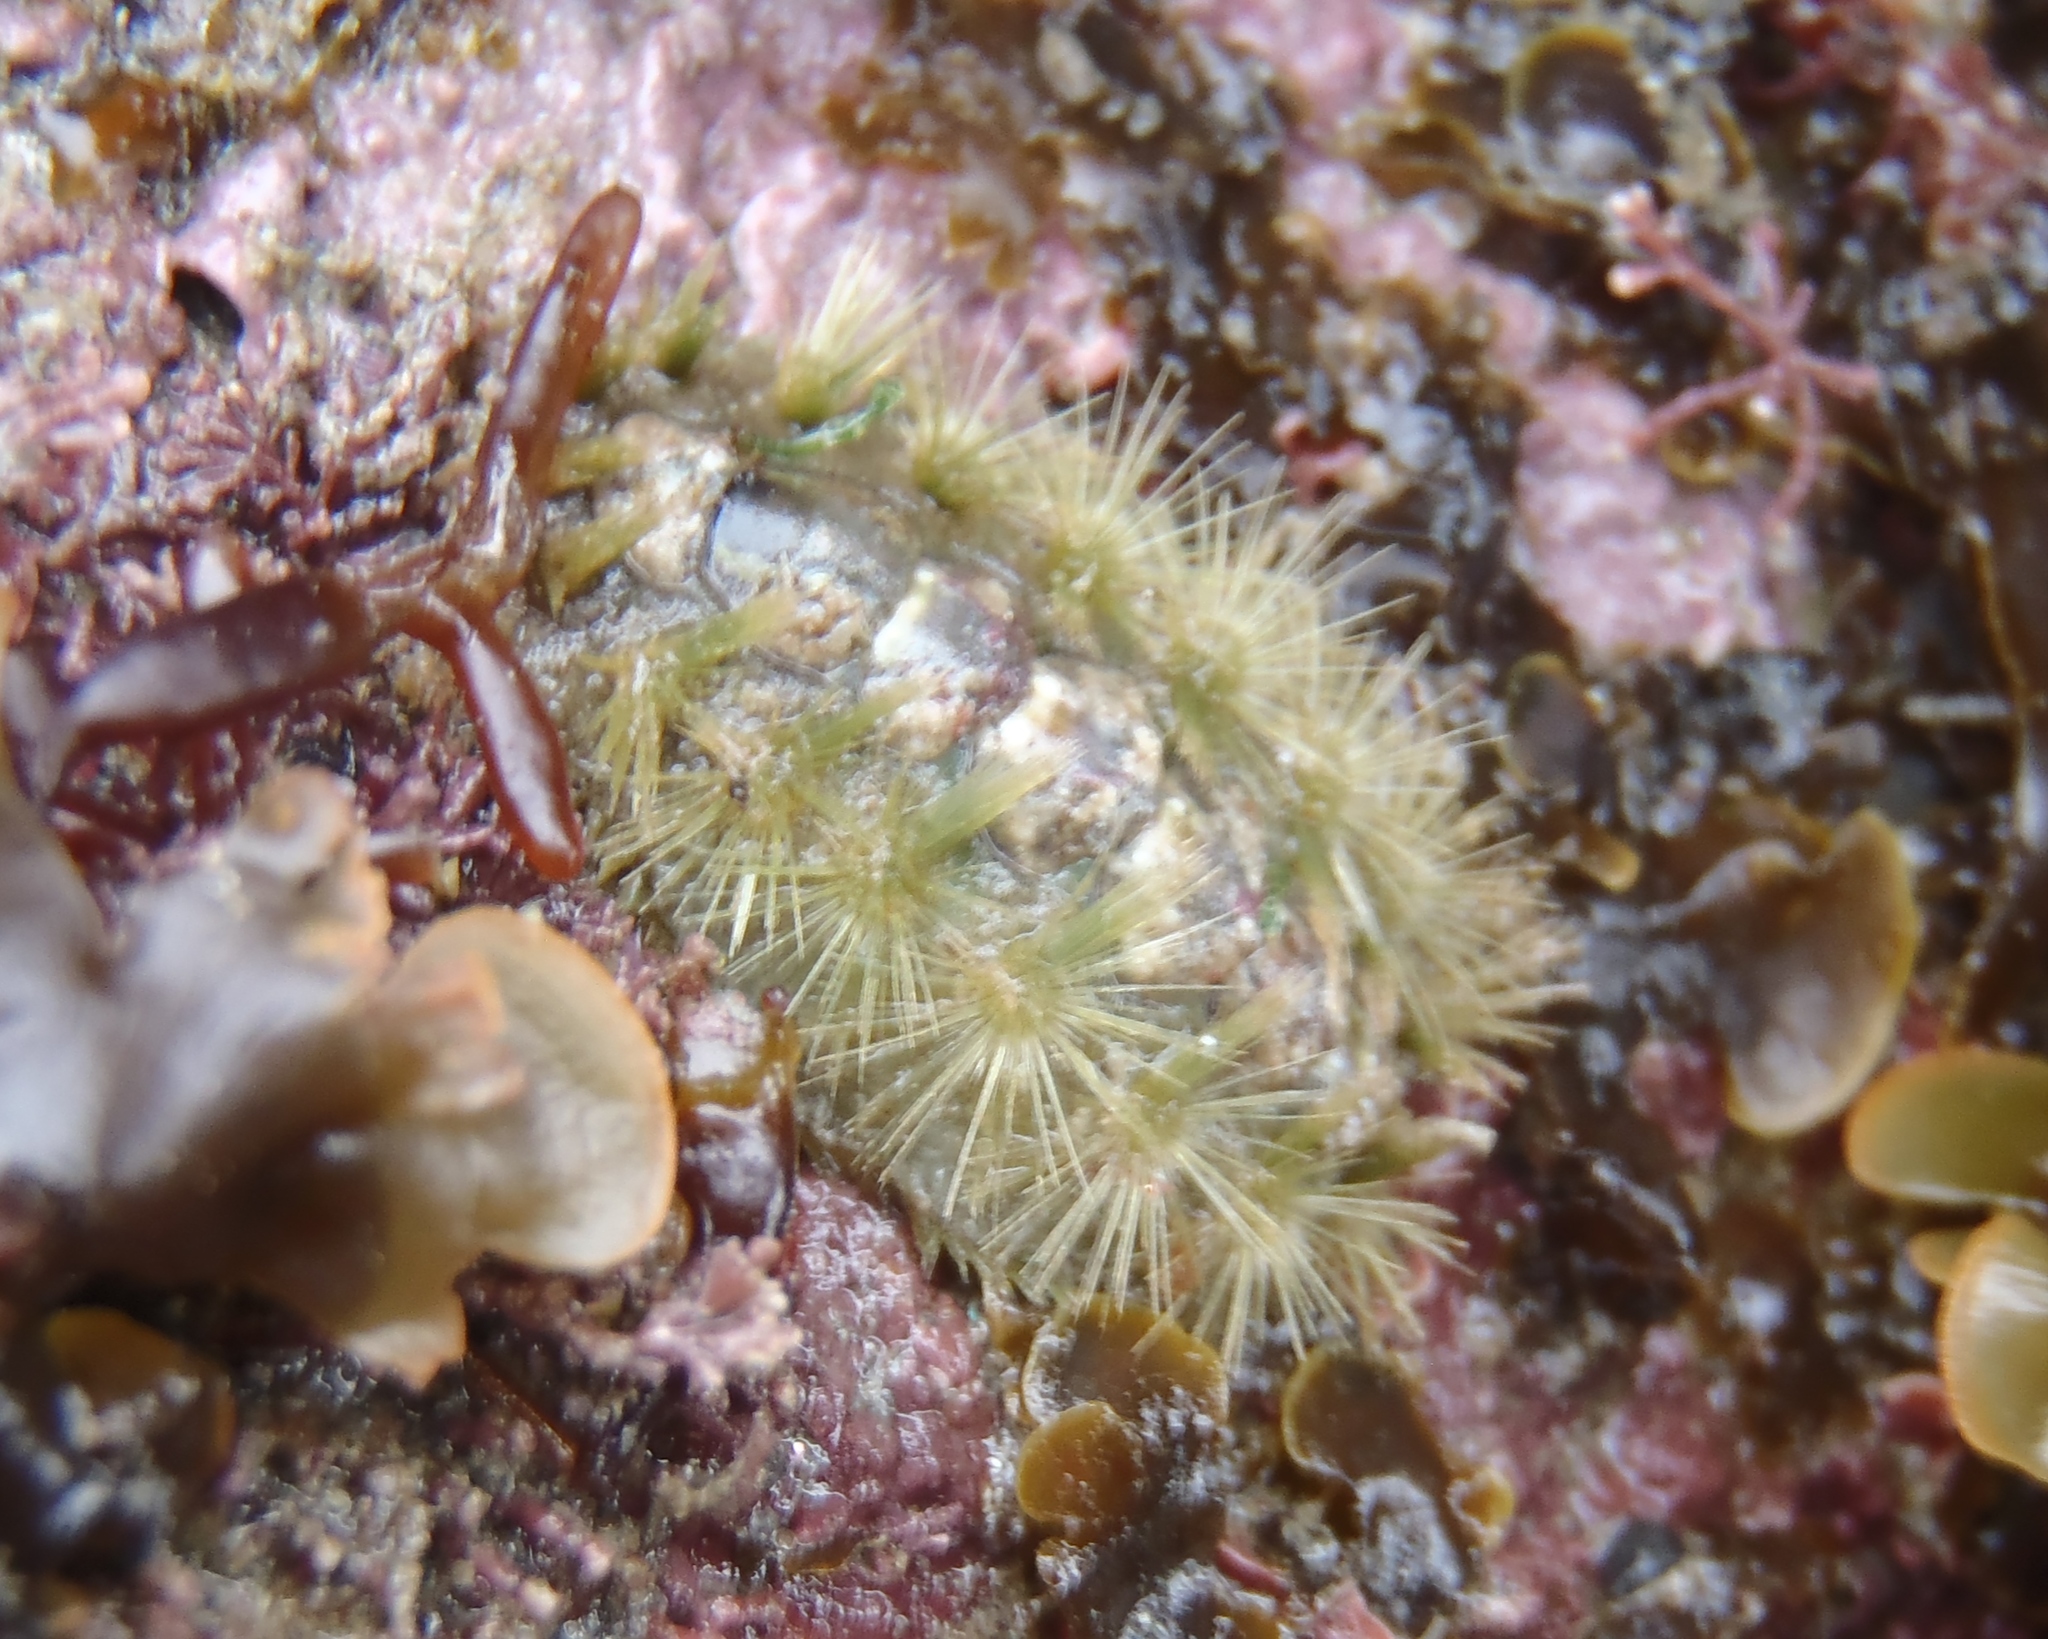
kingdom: Animalia
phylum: Mollusca
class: Polyplacophora
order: Chitonida
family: Acanthochitonidae
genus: Acanthochitona
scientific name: Acanthochitona zelandica
